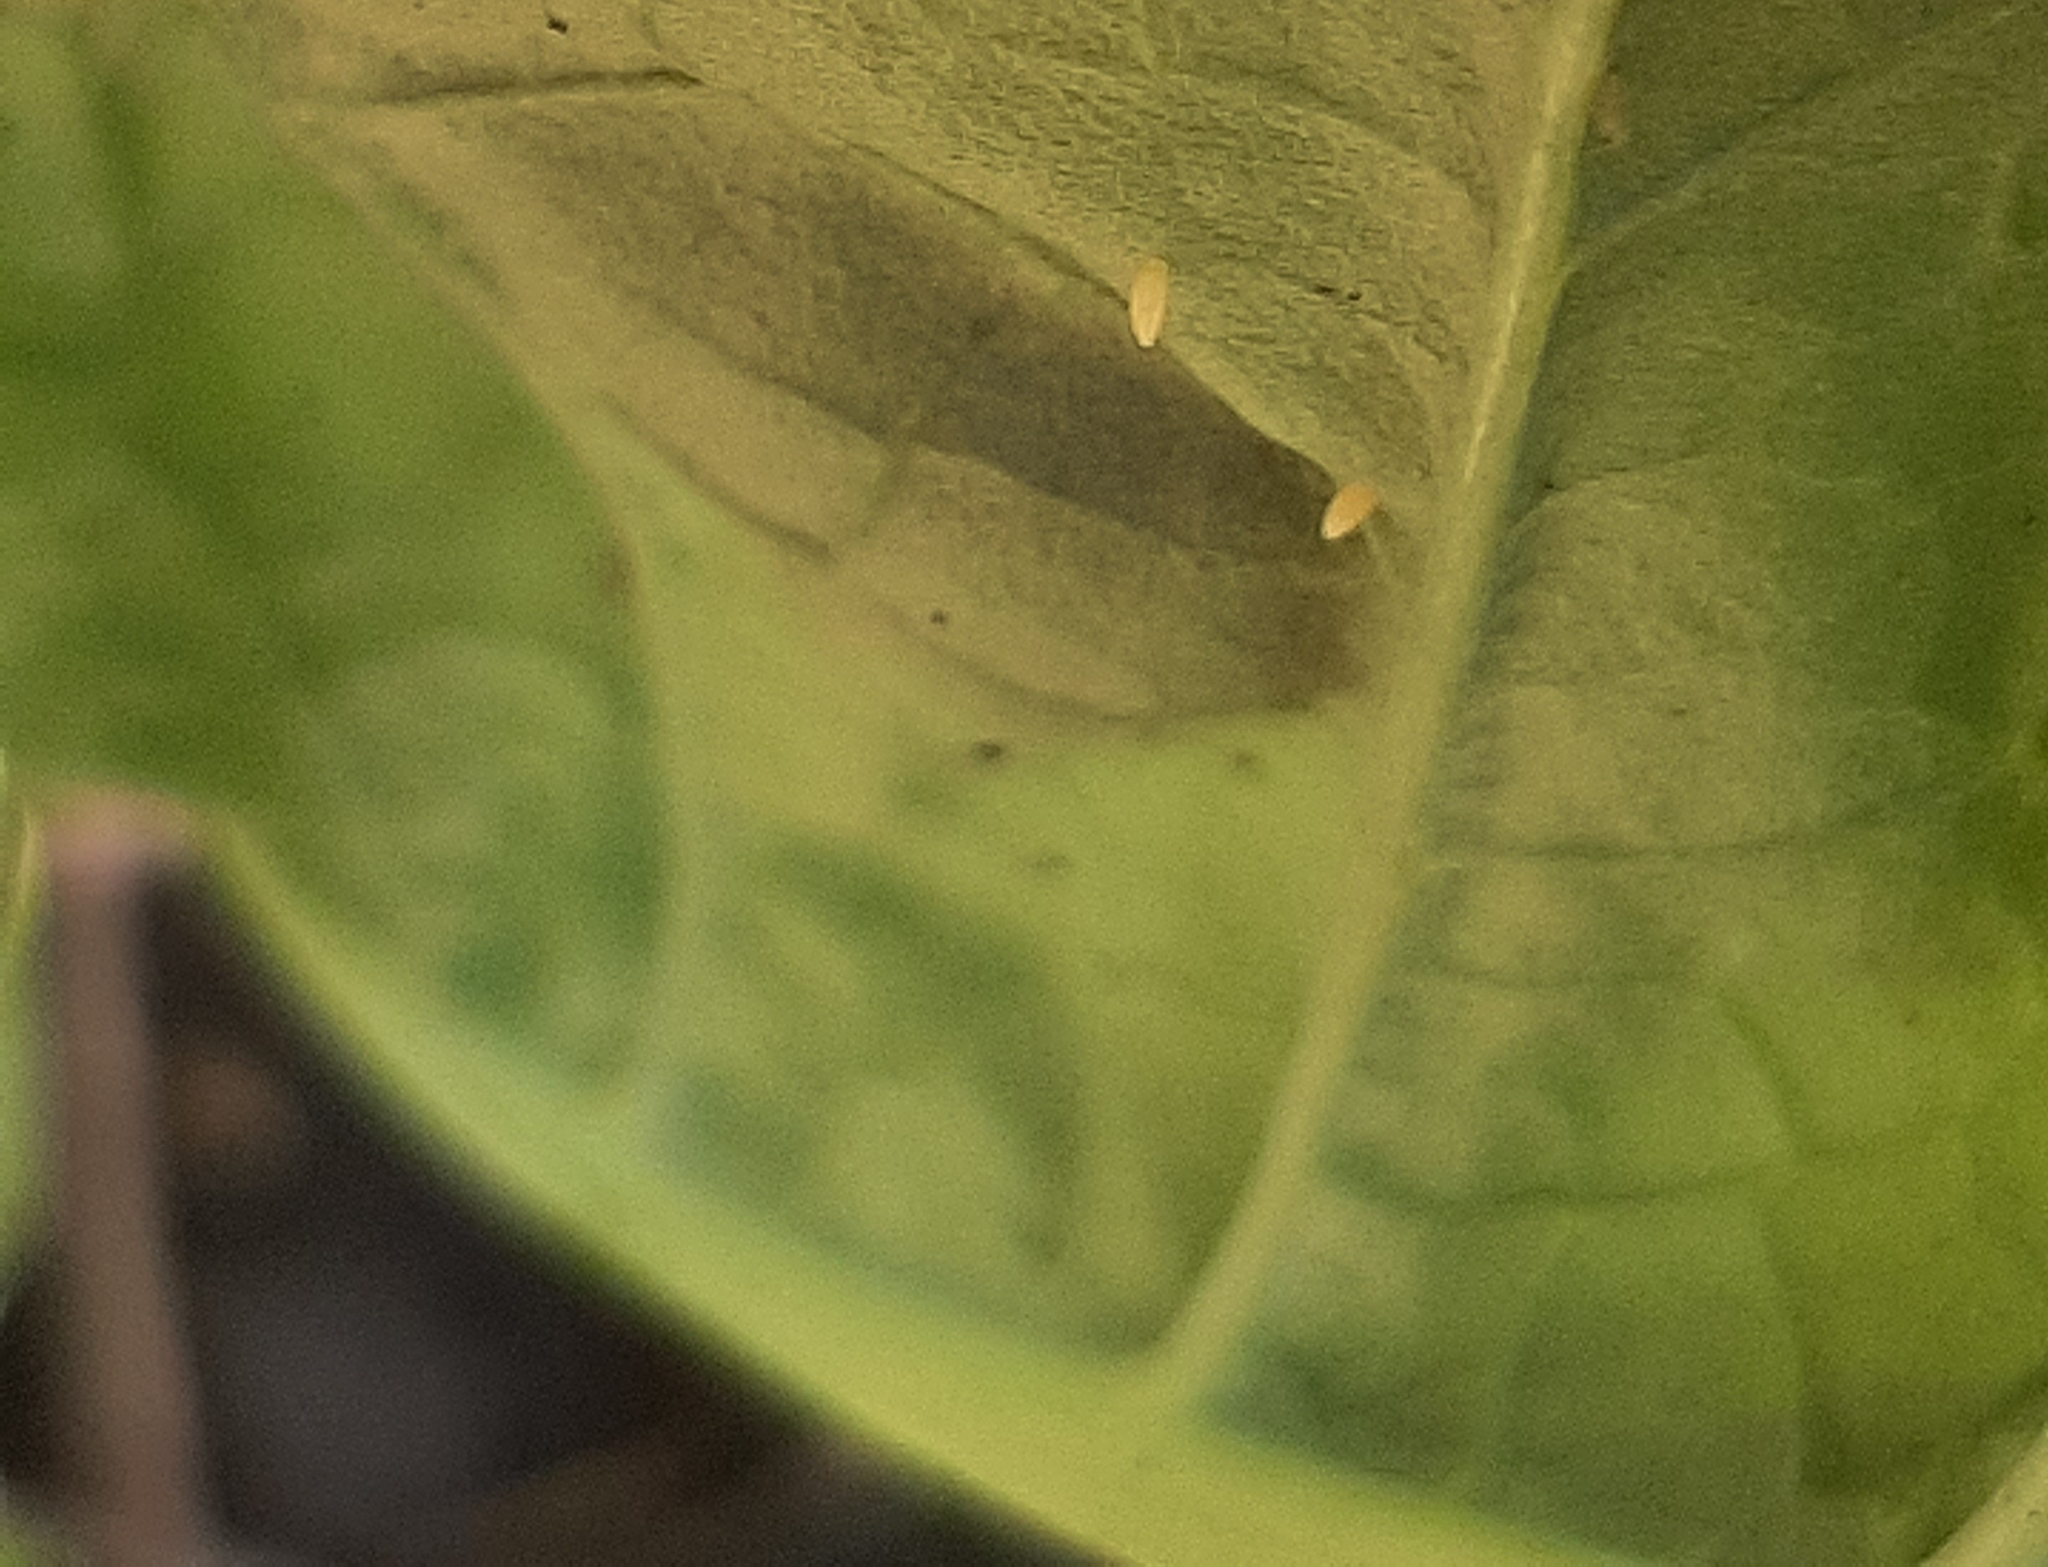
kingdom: Animalia
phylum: Arthropoda
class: Insecta
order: Lepidoptera
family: Pieridae
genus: Pieris
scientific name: Pieris rapae
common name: Small white
